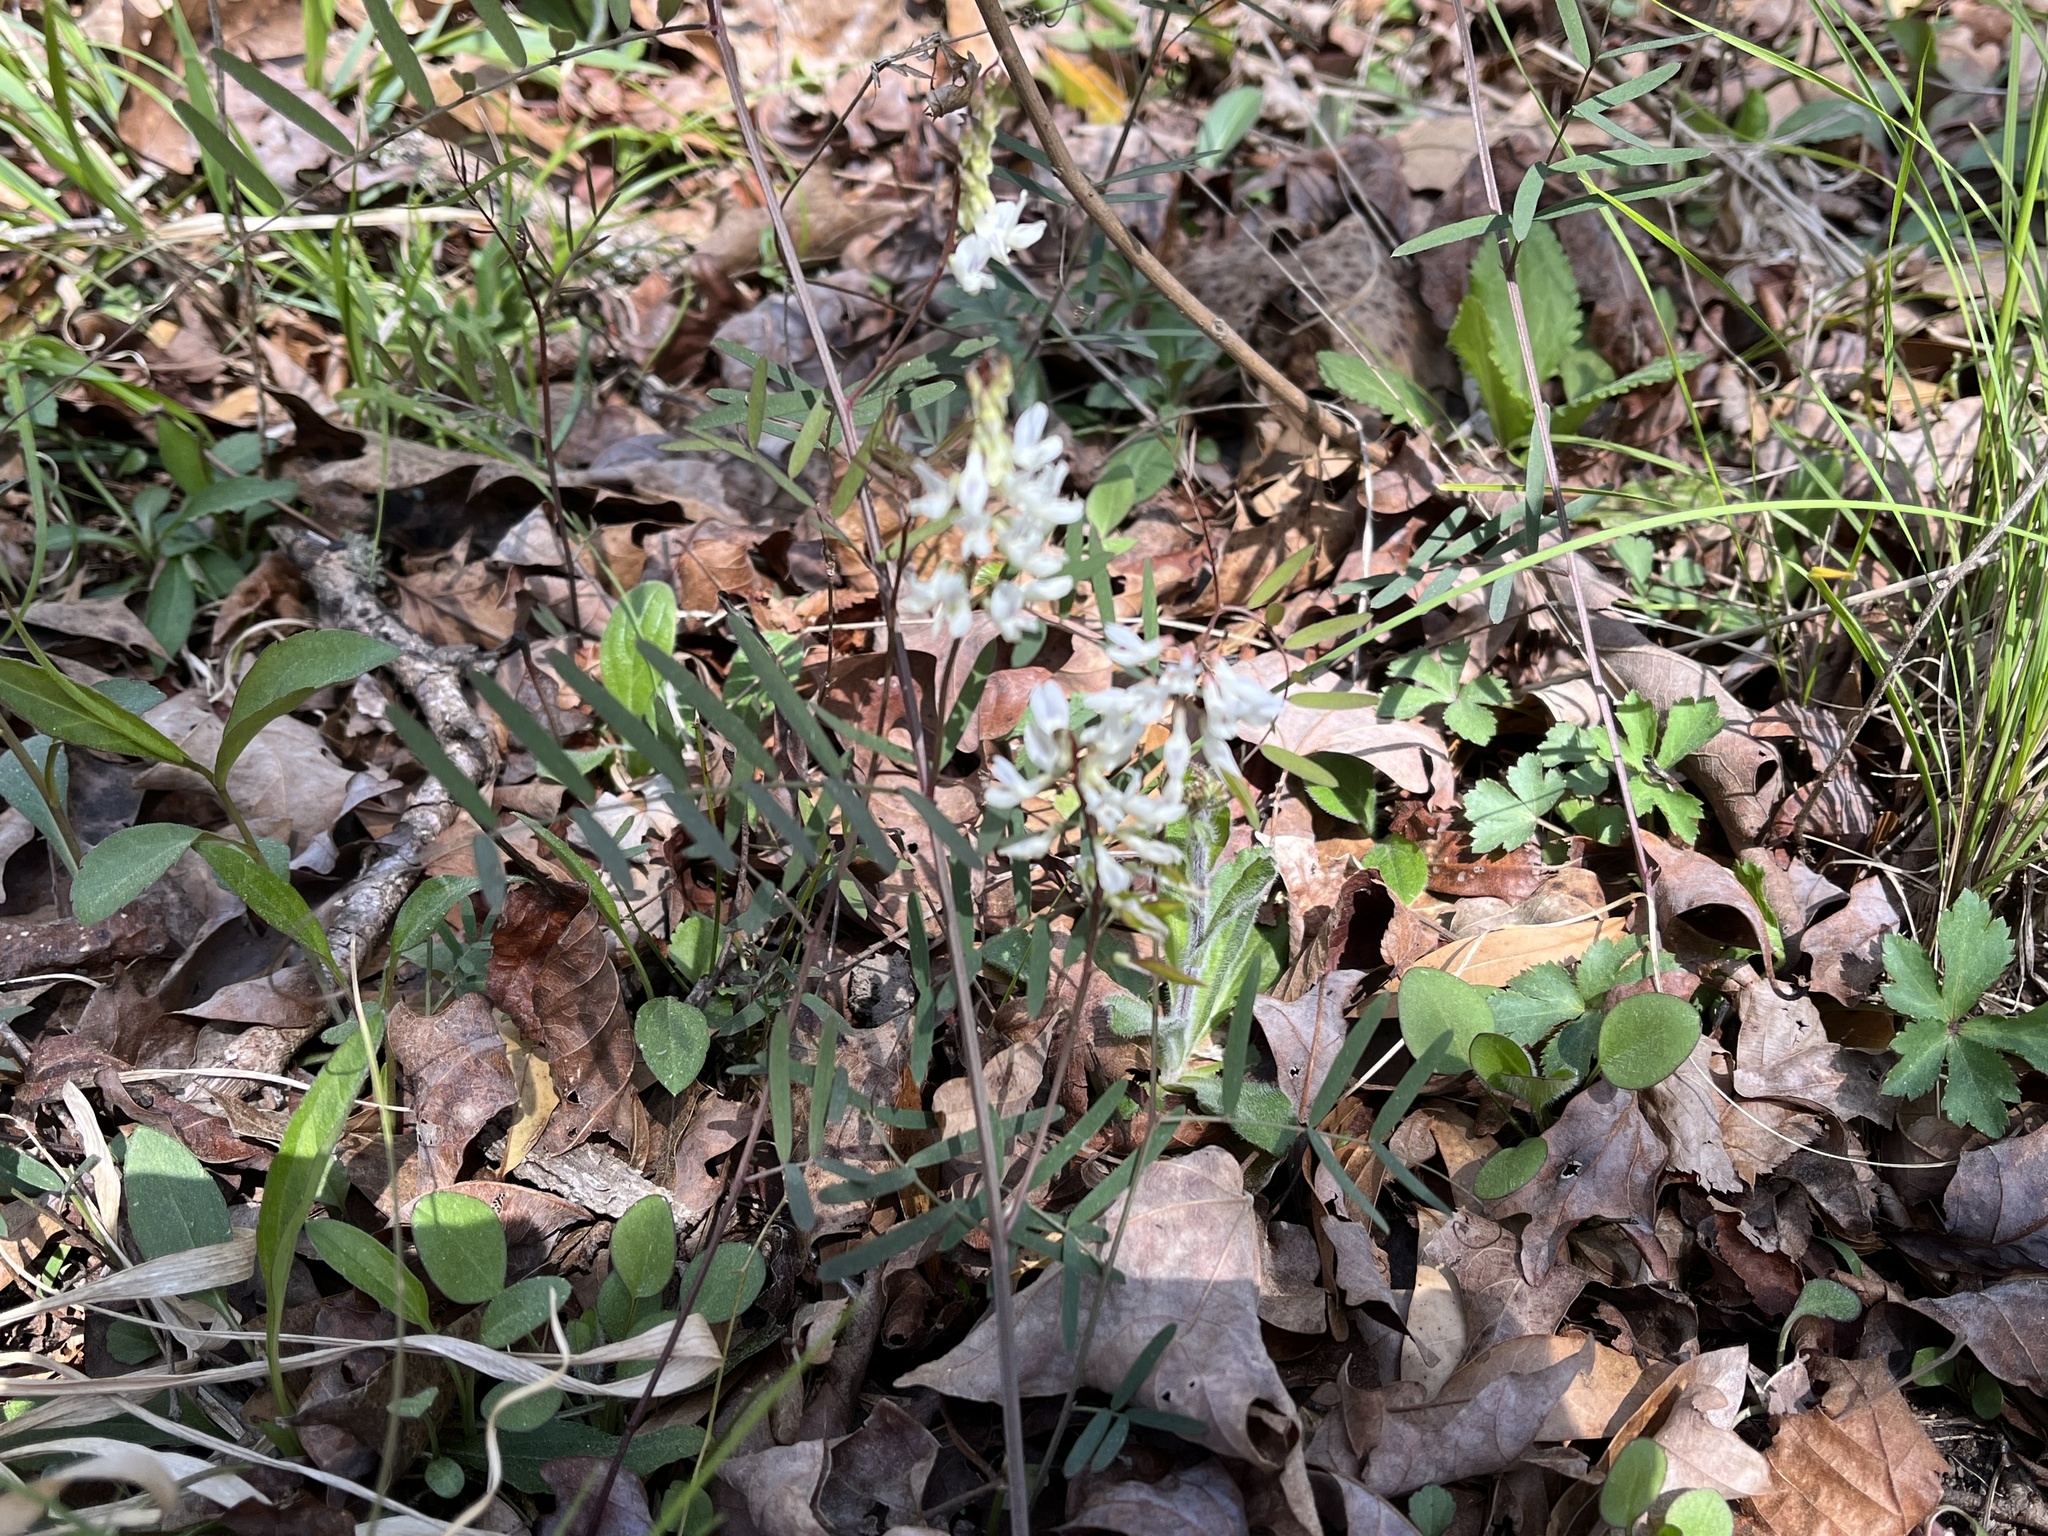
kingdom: Plantae
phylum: Tracheophyta
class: Magnoliopsida
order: Fabales
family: Fabaceae
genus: Vicia
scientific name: Vicia caroliniana
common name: Carolina vetch
